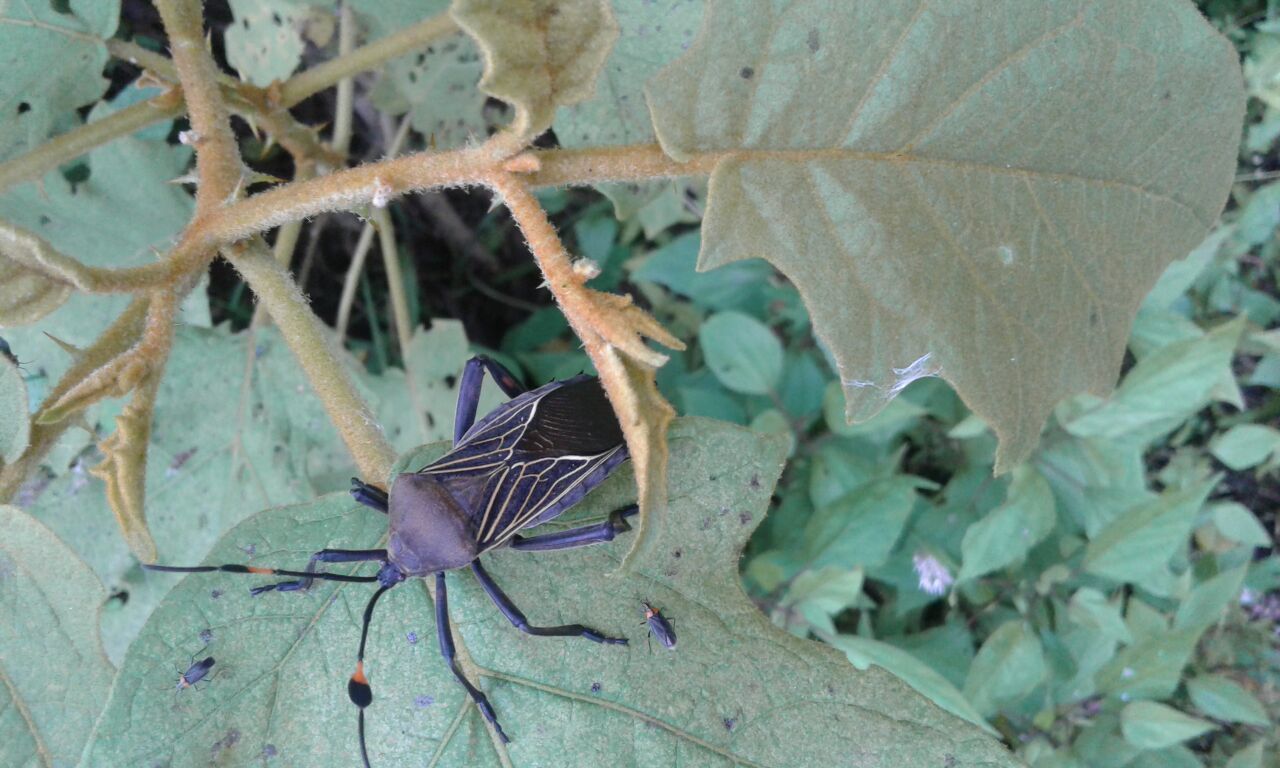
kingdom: Animalia
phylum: Arthropoda
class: Insecta
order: Hemiptera
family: Coreidae
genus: Thasus
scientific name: Thasus
